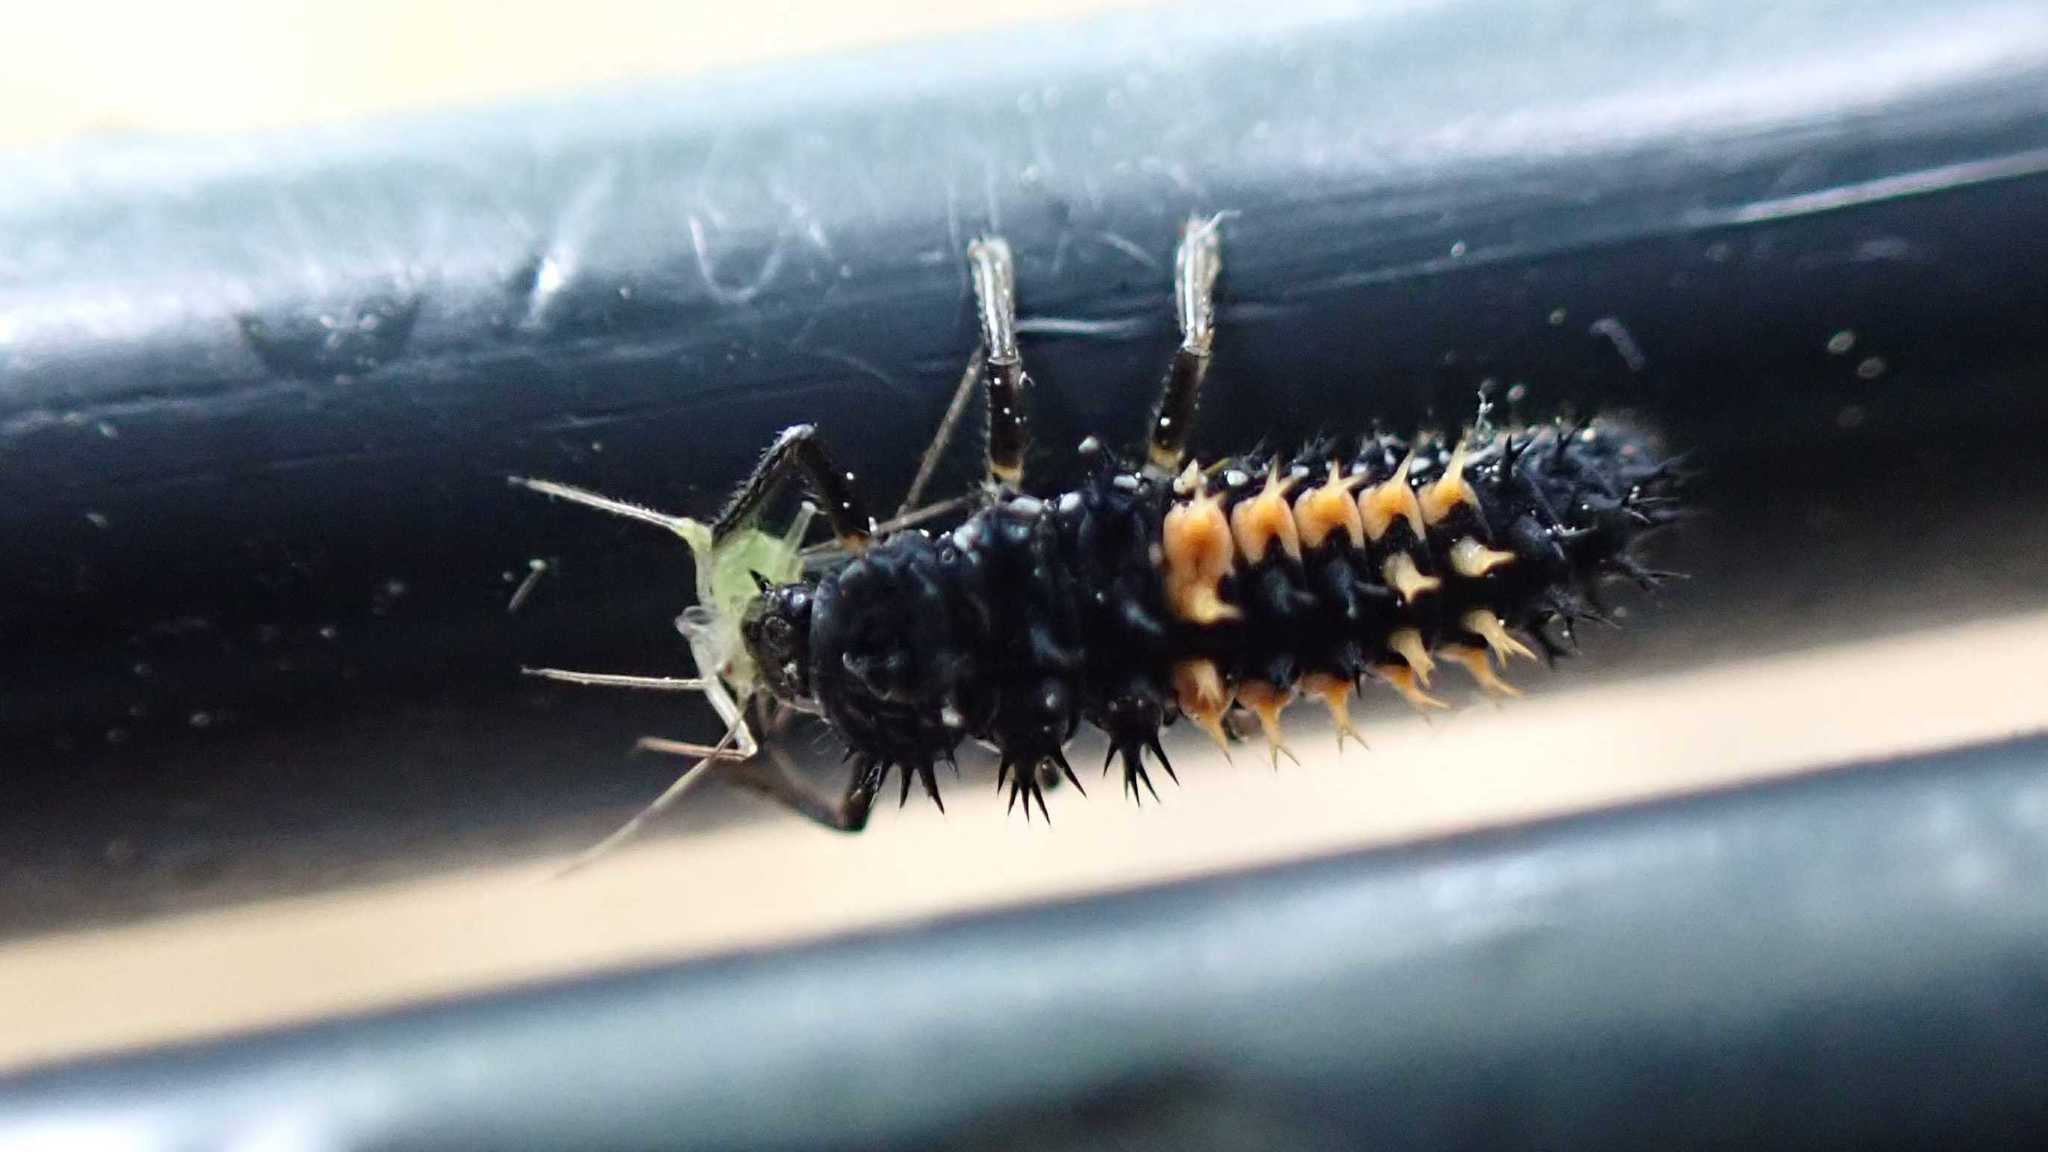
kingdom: Animalia
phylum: Arthropoda
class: Insecta
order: Coleoptera
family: Coccinellidae
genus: Harmonia
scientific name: Harmonia axyridis
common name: Harlequin ladybird
